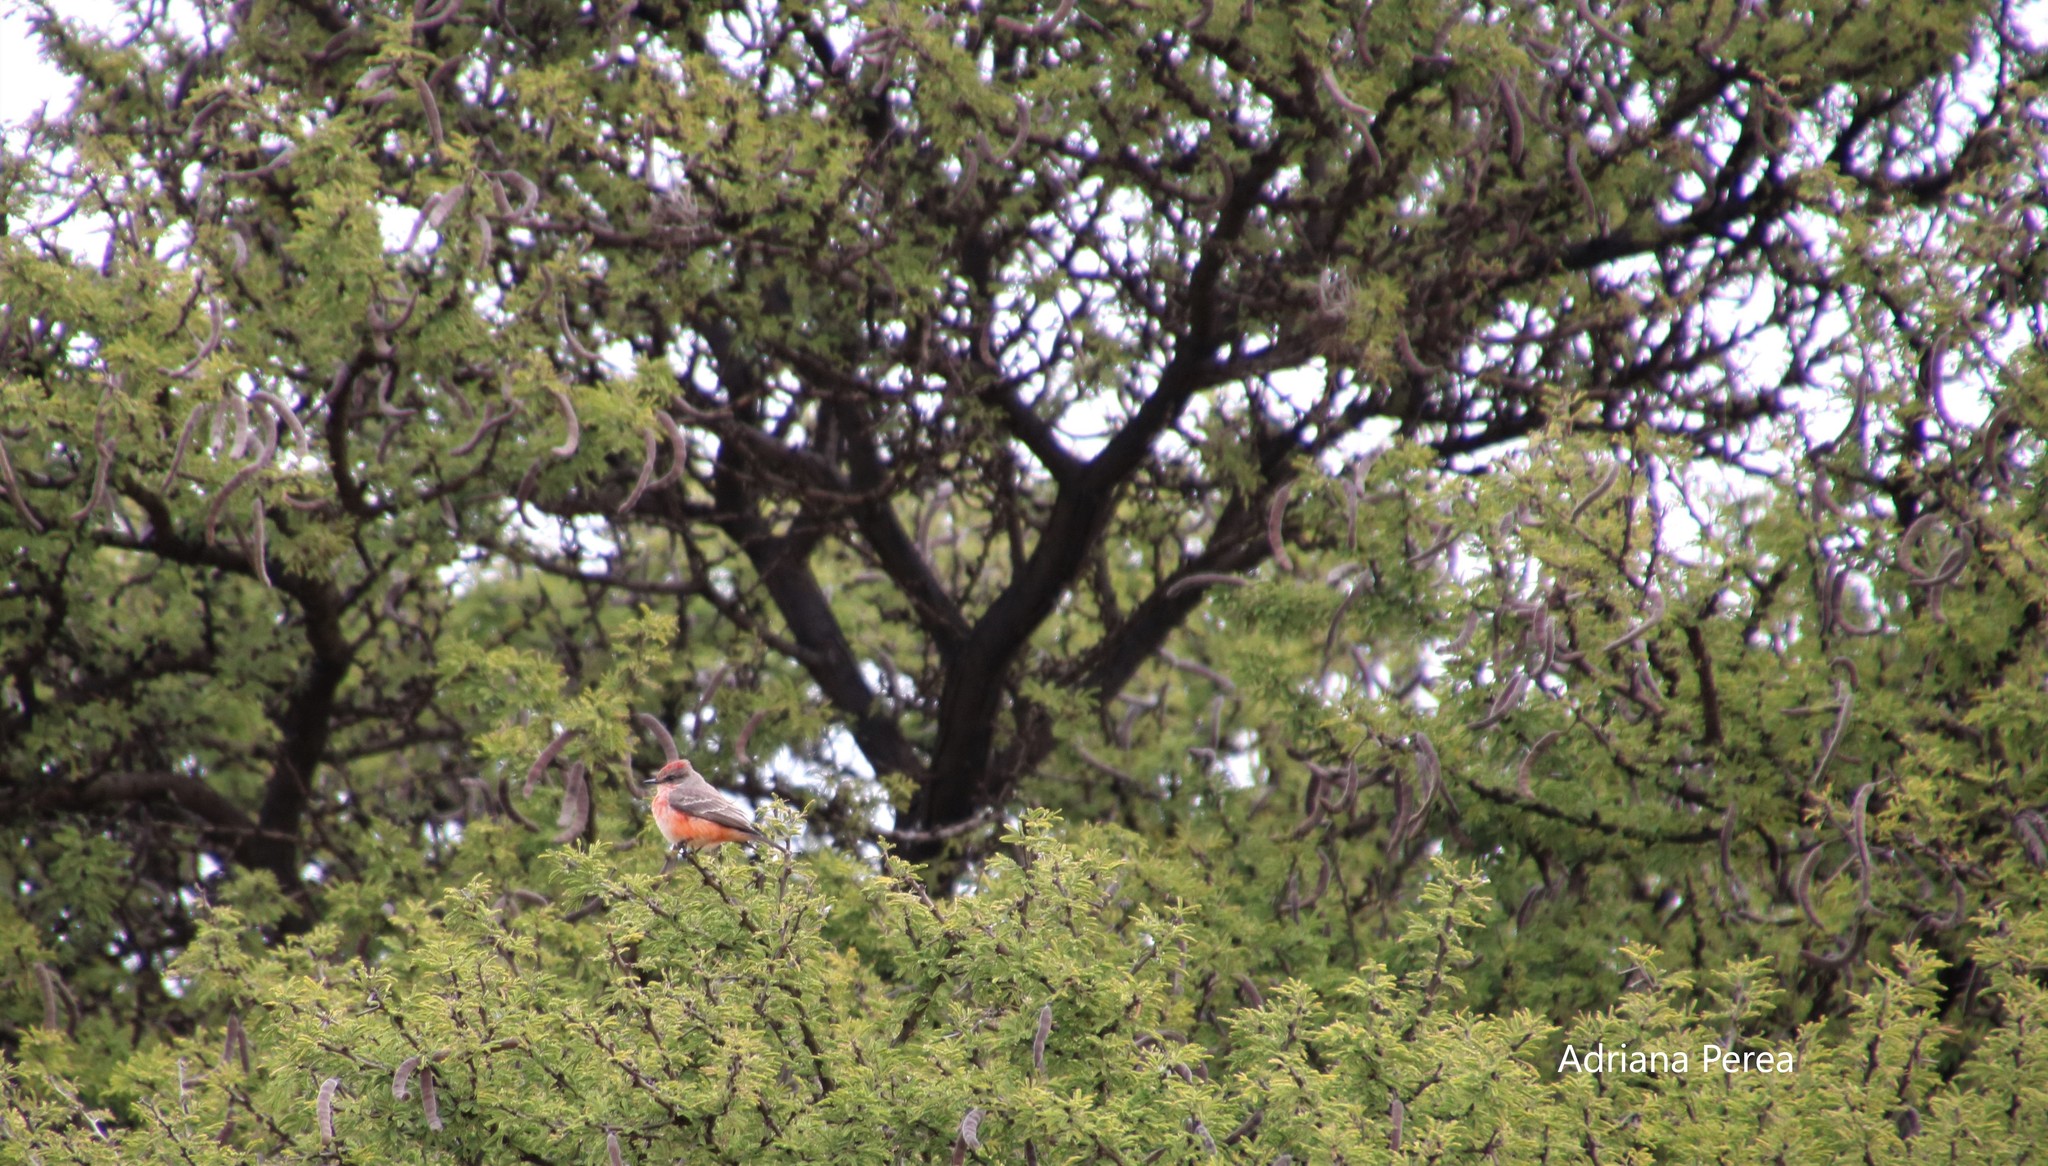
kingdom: Animalia
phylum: Chordata
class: Aves
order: Passeriformes
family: Tyrannidae
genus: Pyrocephalus
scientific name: Pyrocephalus rubinus
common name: Vermilion flycatcher
